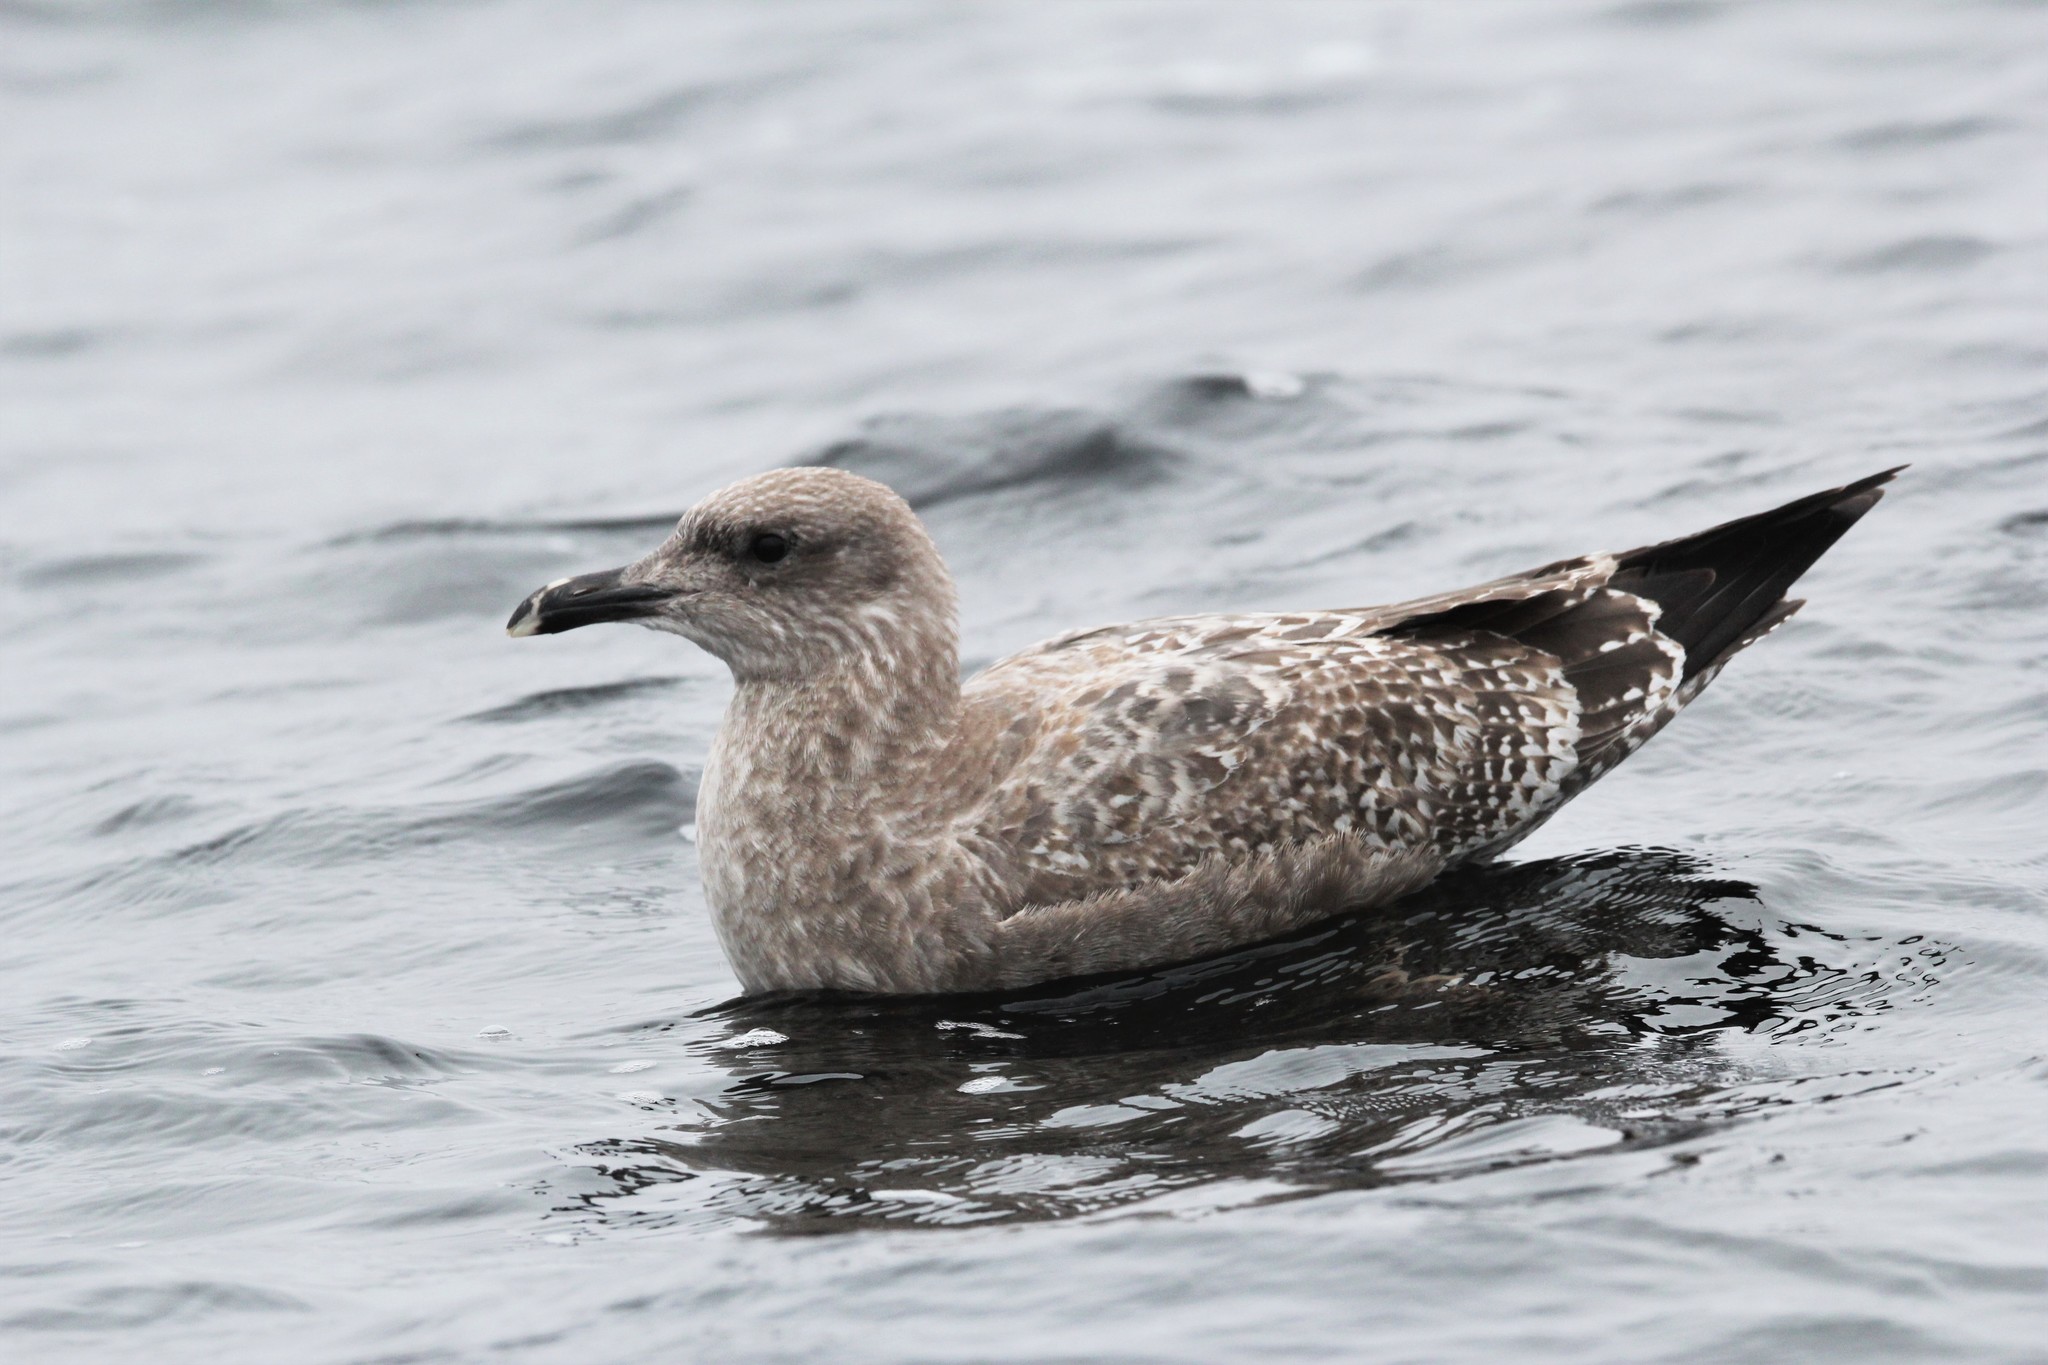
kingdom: Animalia
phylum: Chordata
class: Aves
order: Charadriiformes
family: Laridae
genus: Larus
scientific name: Larus argentatus
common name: Herring gull
